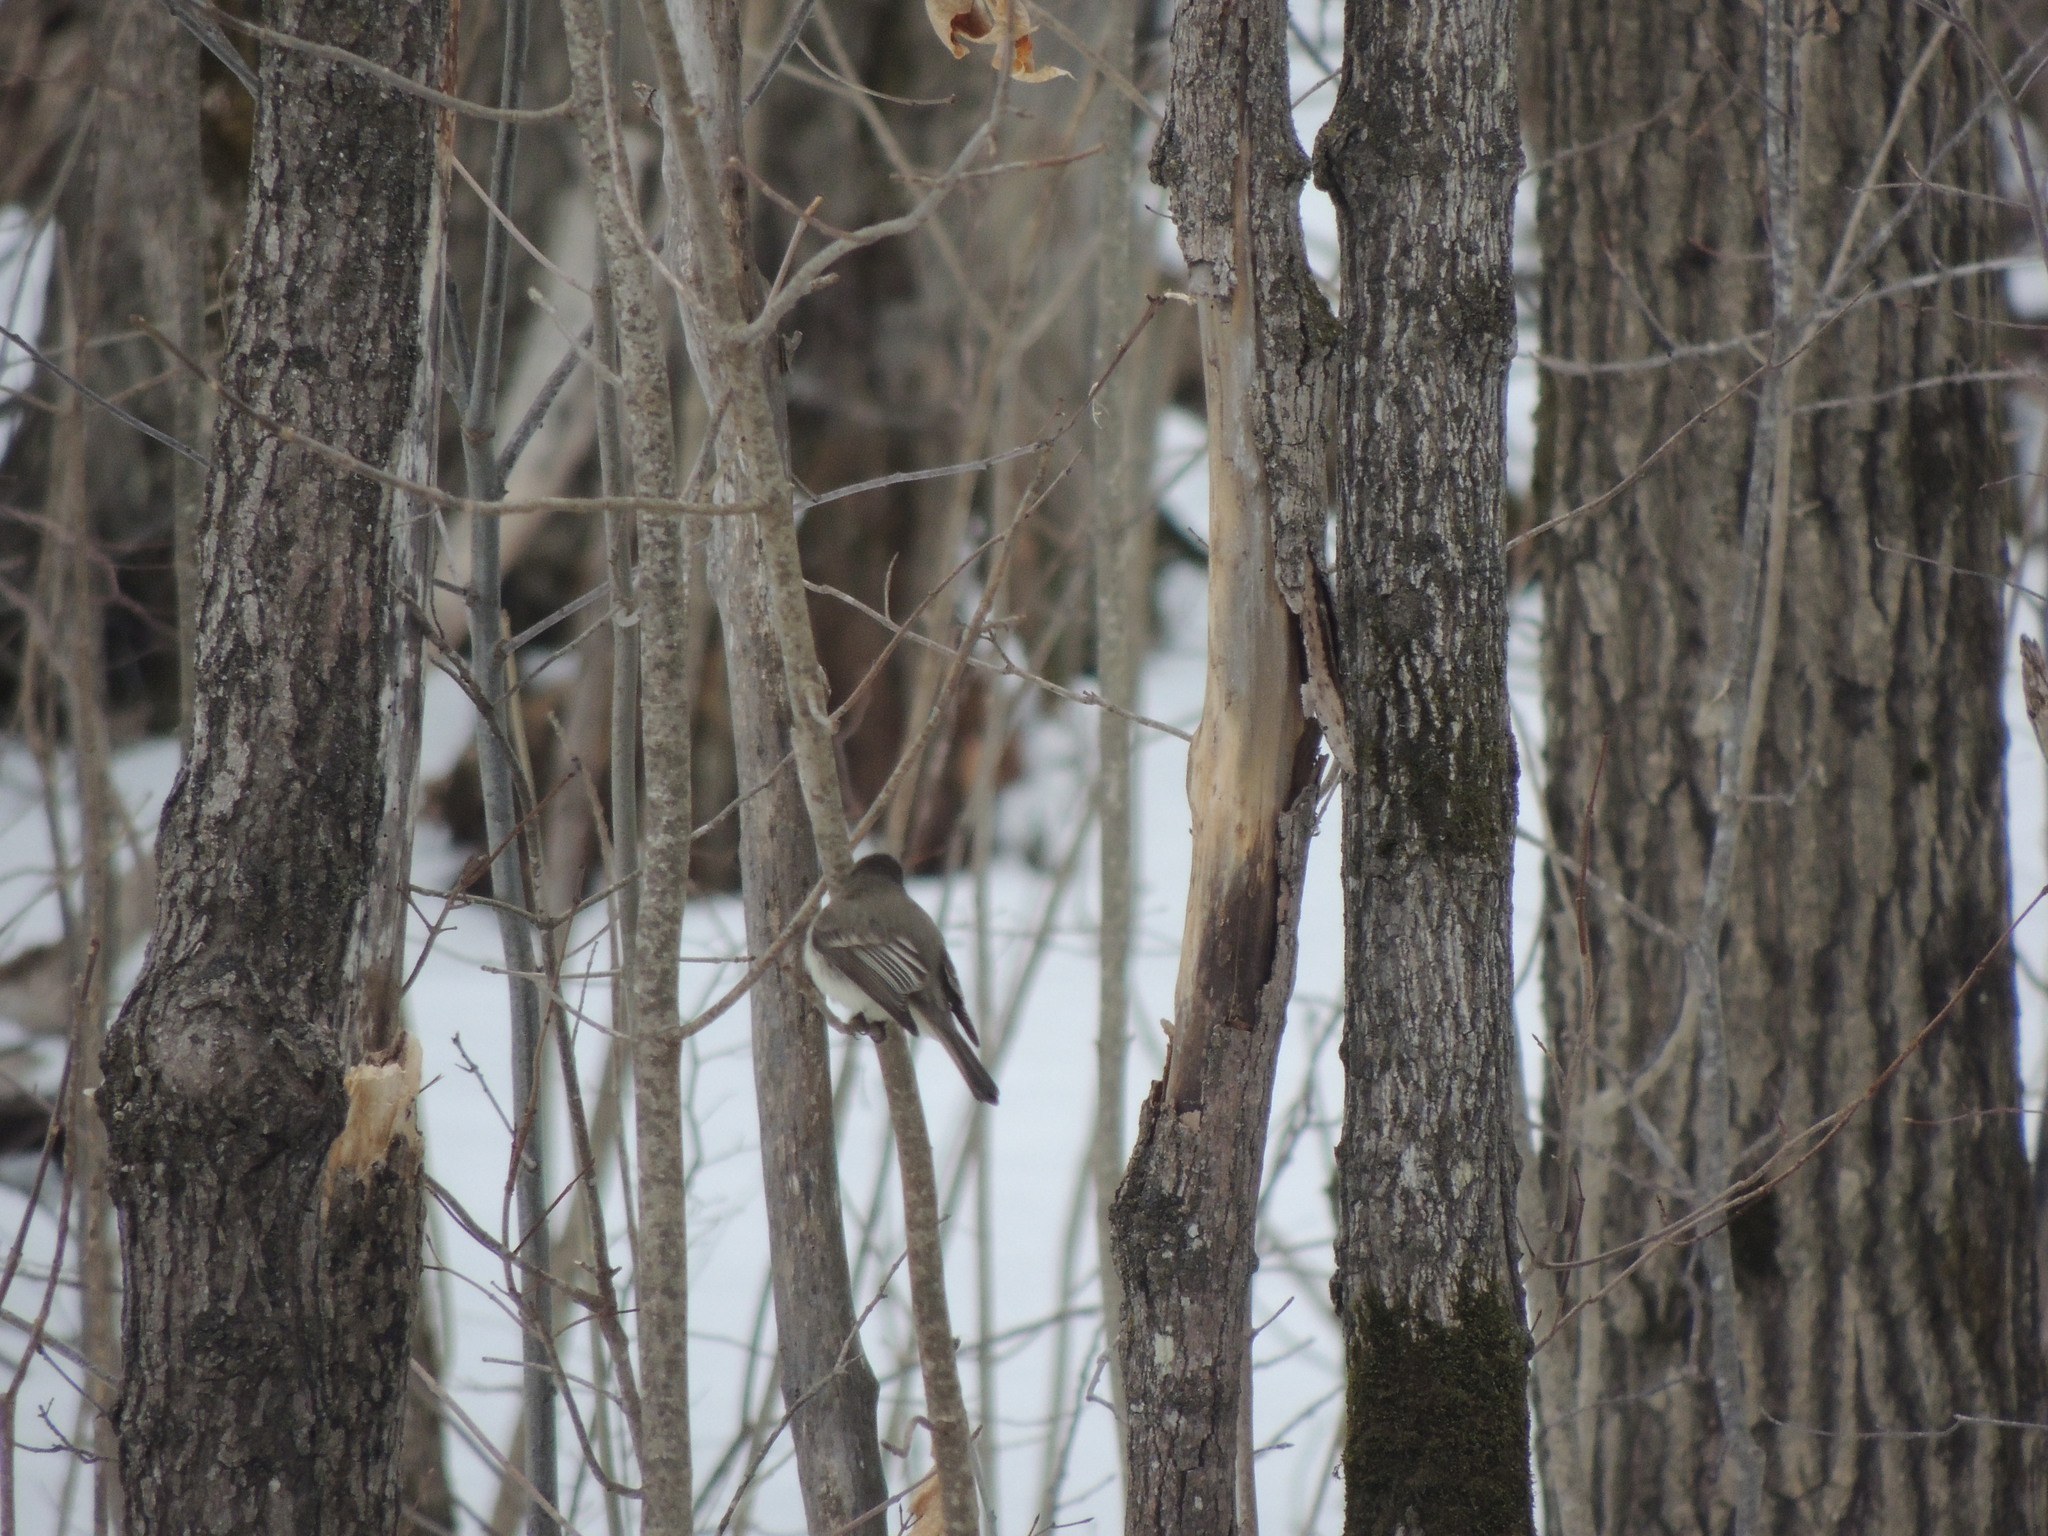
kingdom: Animalia
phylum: Chordata
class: Aves
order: Passeriformes
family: Tyrannidae
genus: Sayornis
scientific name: Sayornis phoebe
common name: Eastern phoebe
